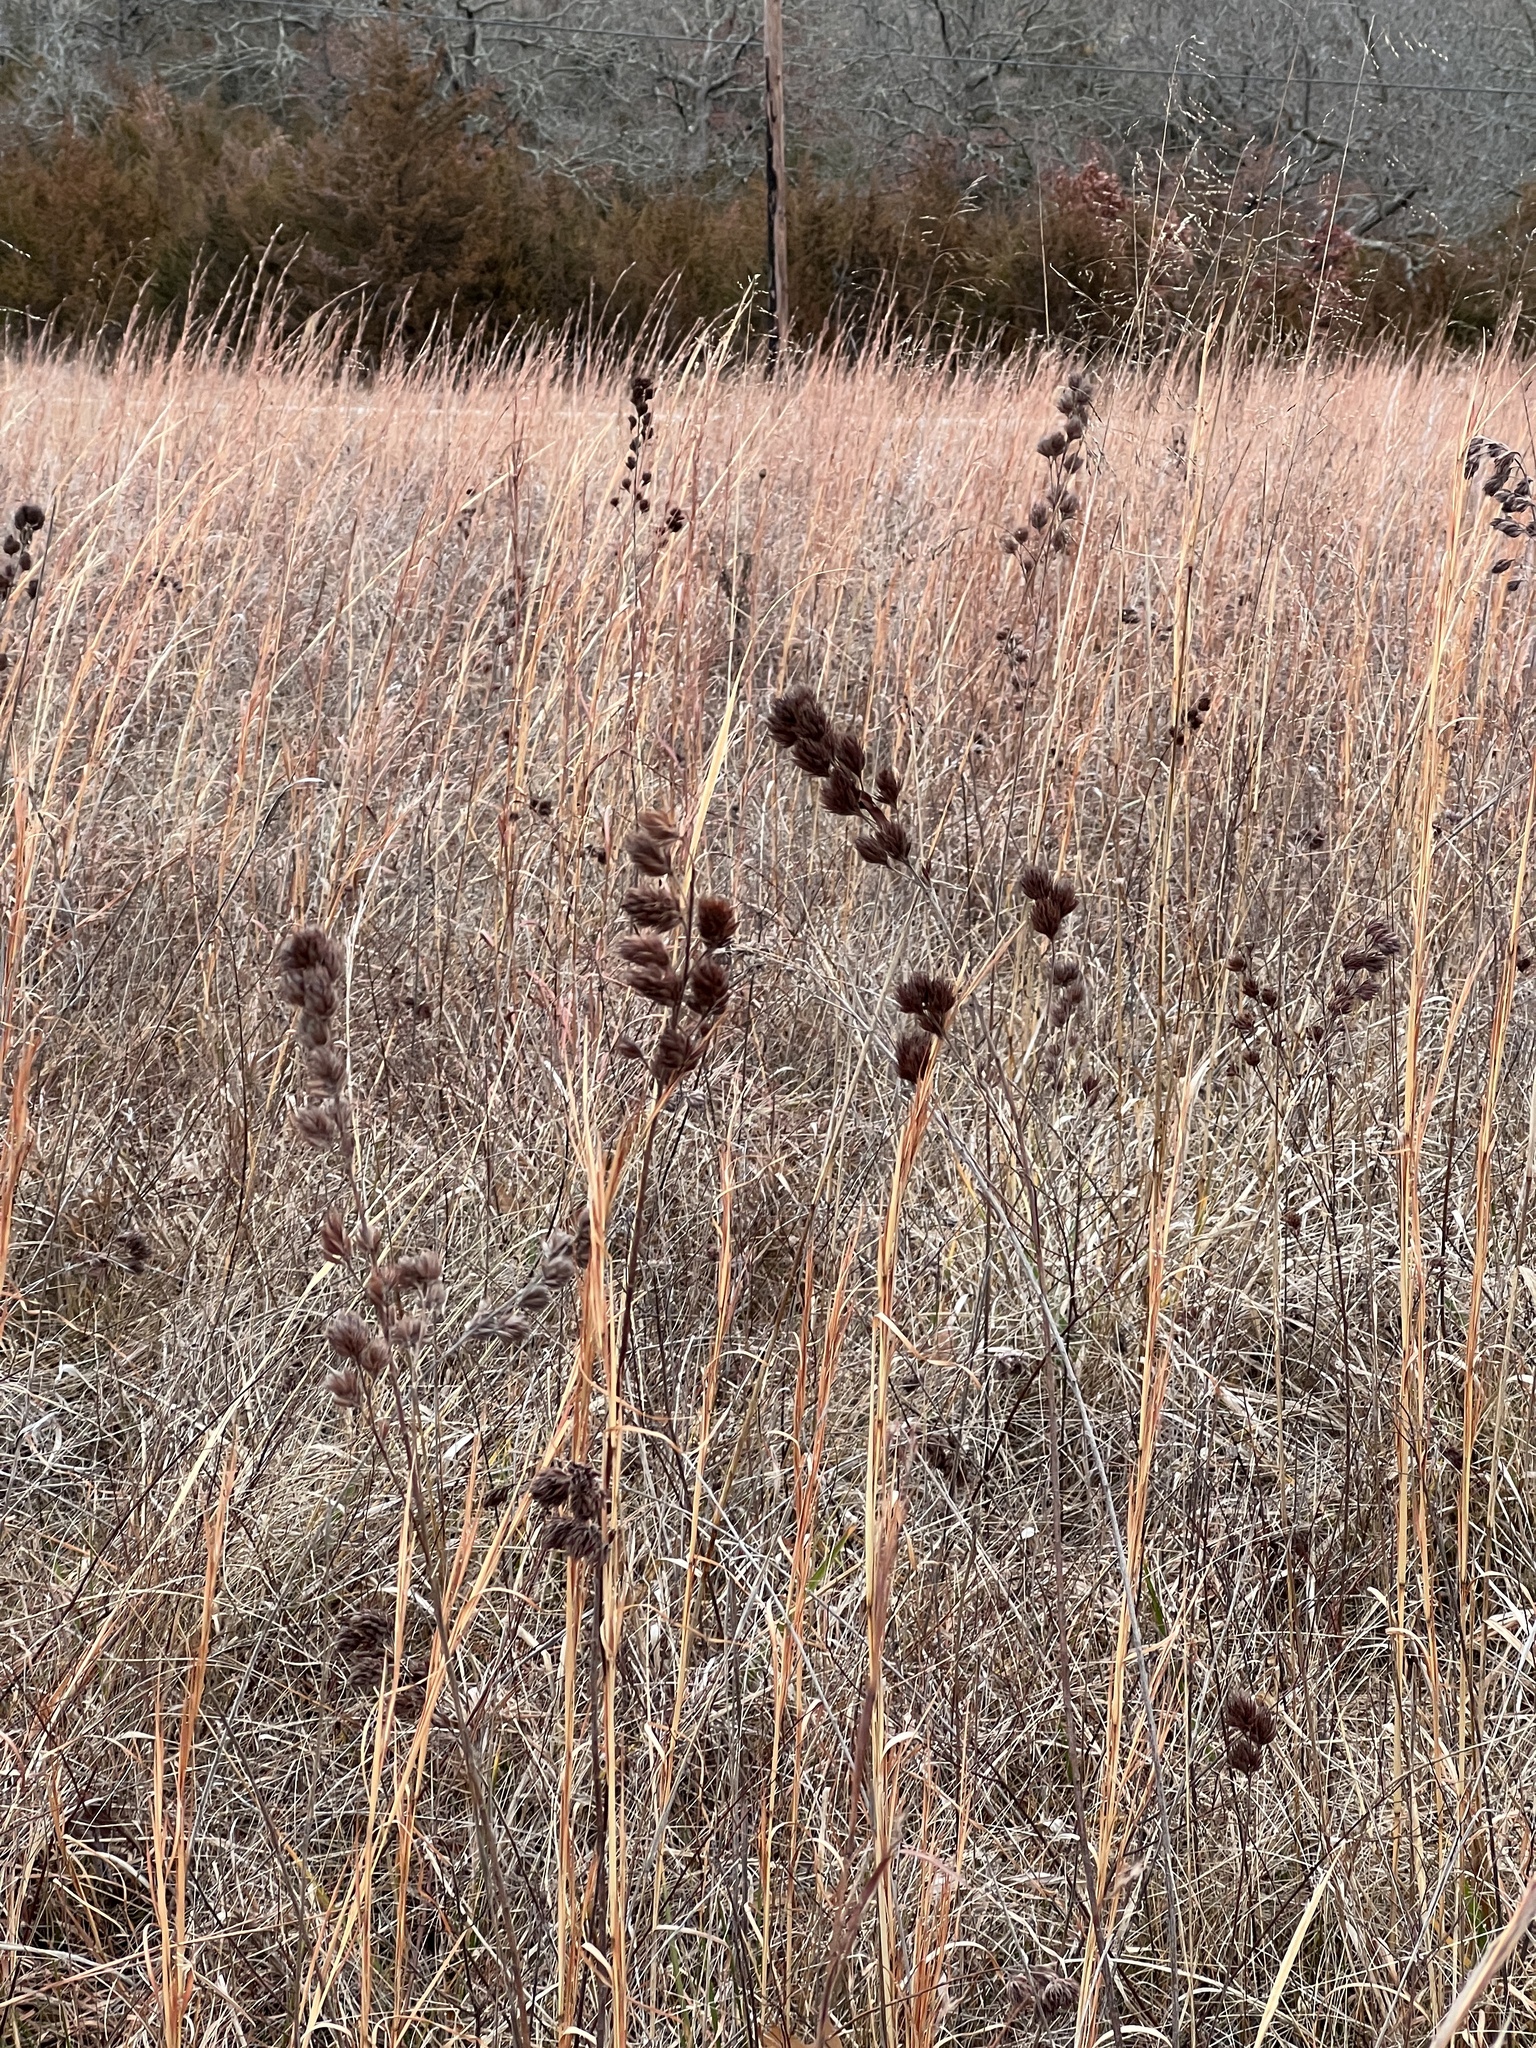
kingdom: Plantae
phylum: Tracheophyta
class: Magnoliopsida
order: Fabales
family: Fabaceae
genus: Lespedeza
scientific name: Lespedeza capitata
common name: Dusty clover
